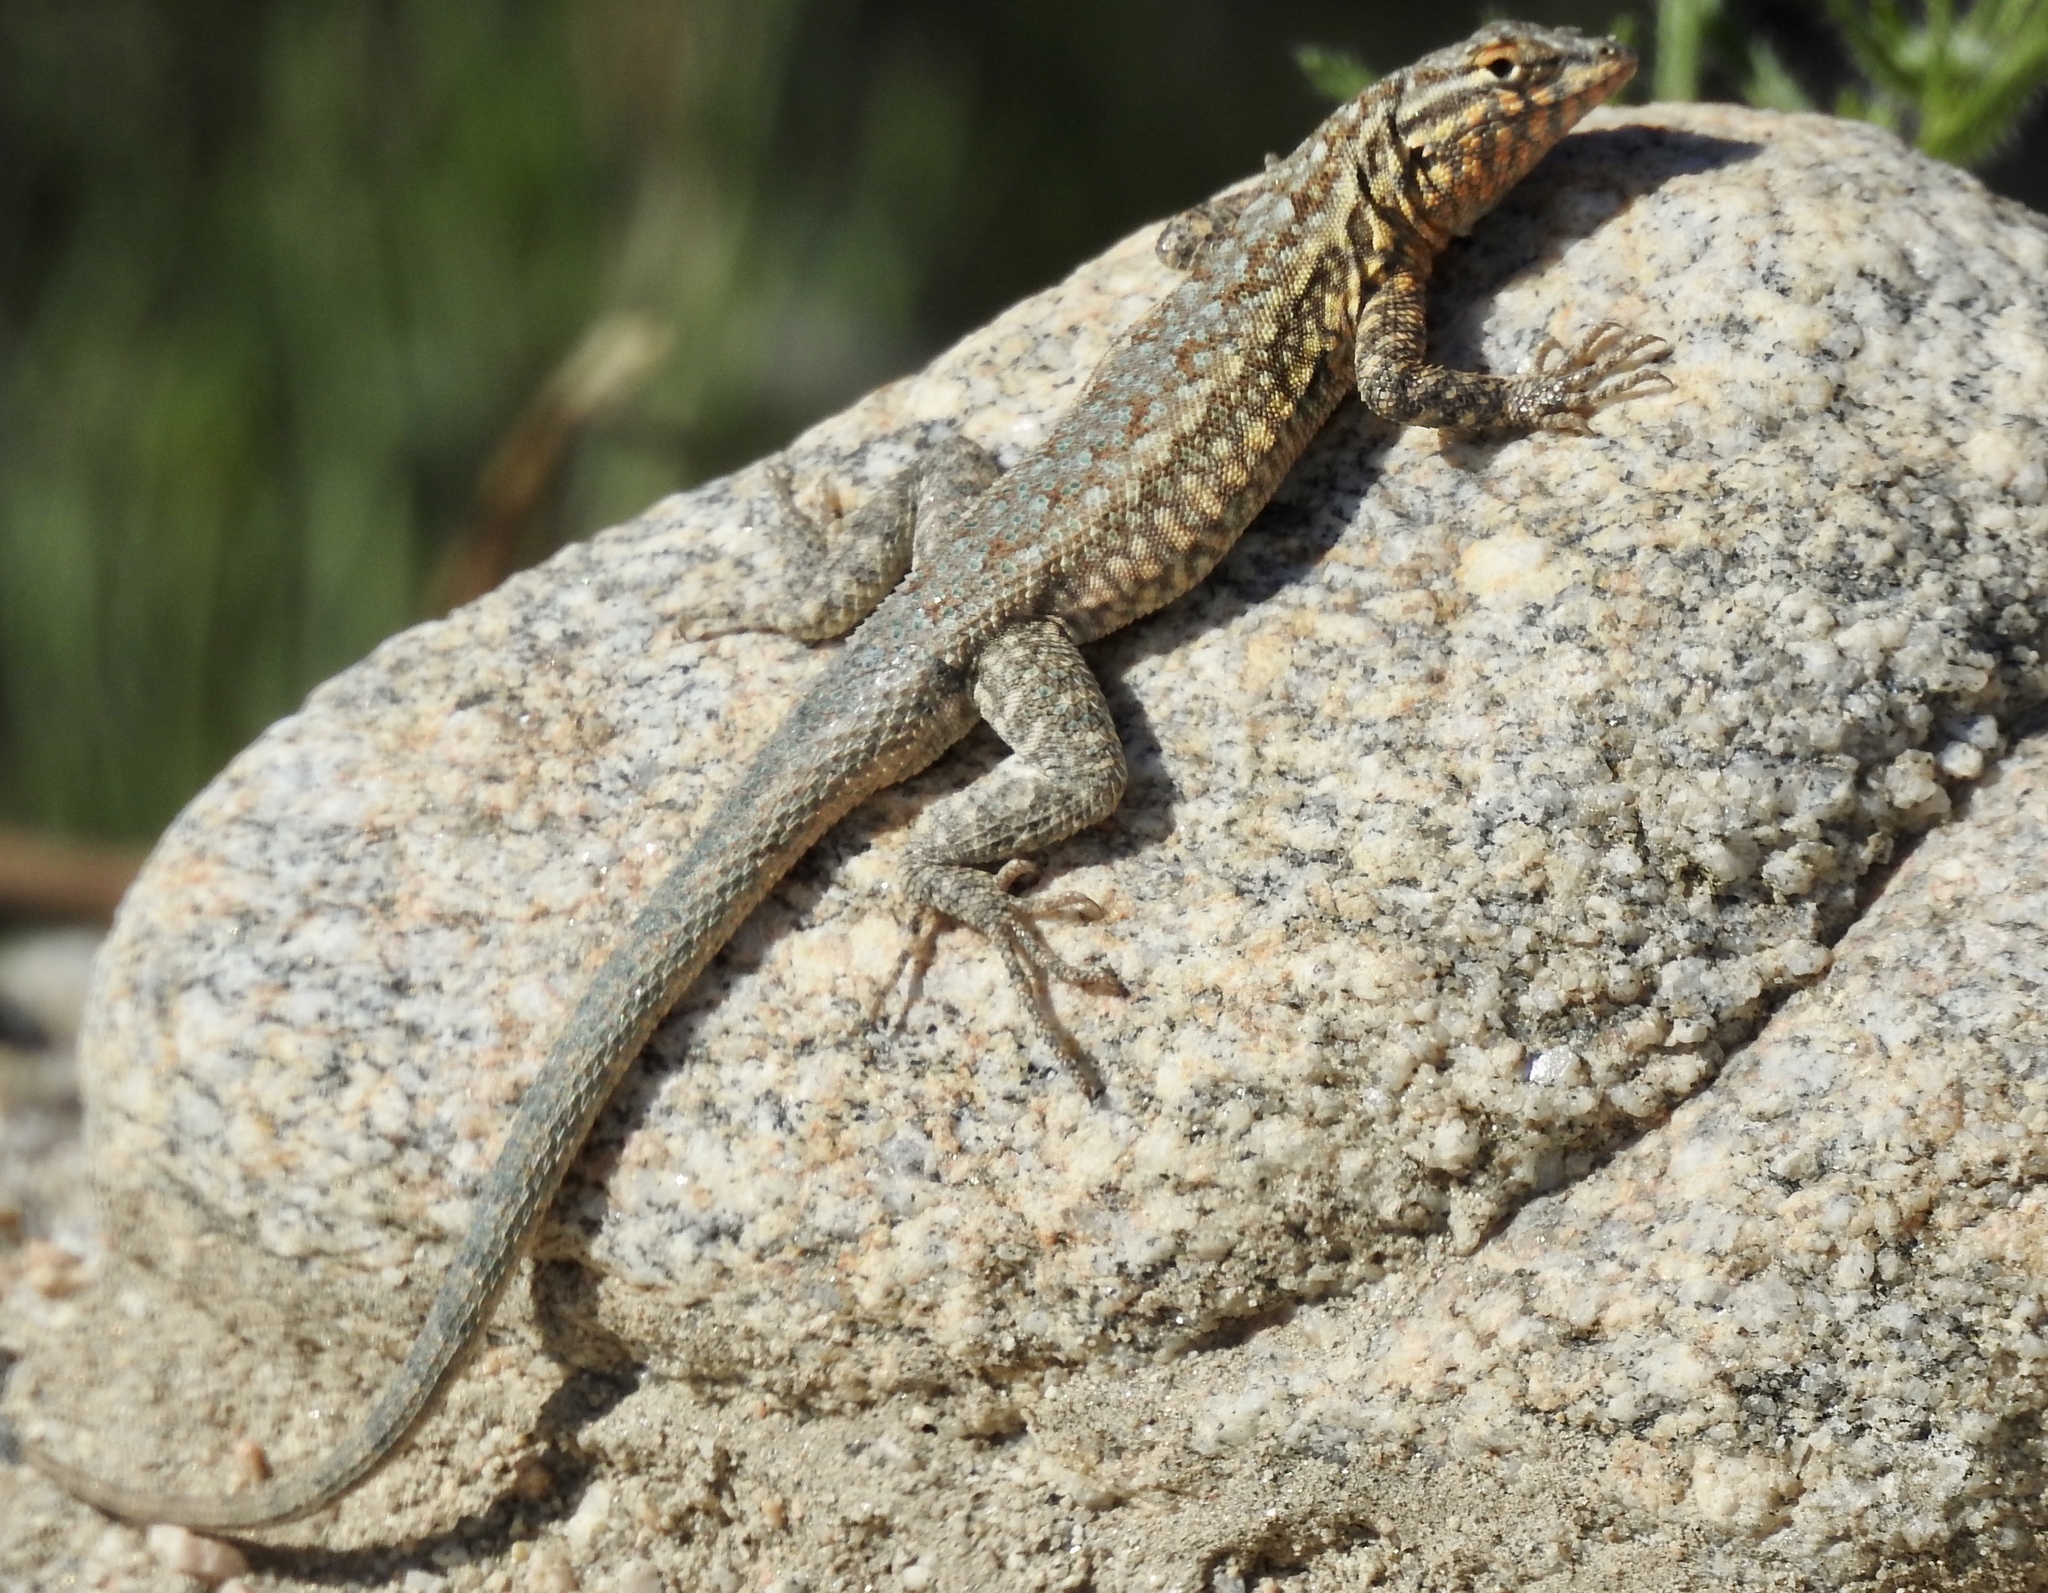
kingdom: Animalia
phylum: Chordata
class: Squamata
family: Phrynosomatidae
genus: Uta
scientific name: Uta stansburiana
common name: Side-blotched lizard
